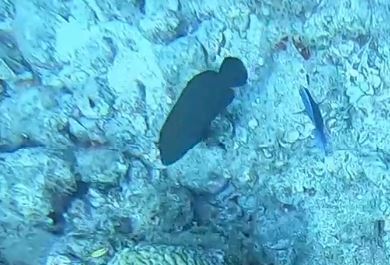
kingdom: Animalia
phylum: Chordata
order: Perciformes
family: Serranidae
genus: Mycteroperca
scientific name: Mycteroperca bonaci
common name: Black grouper
